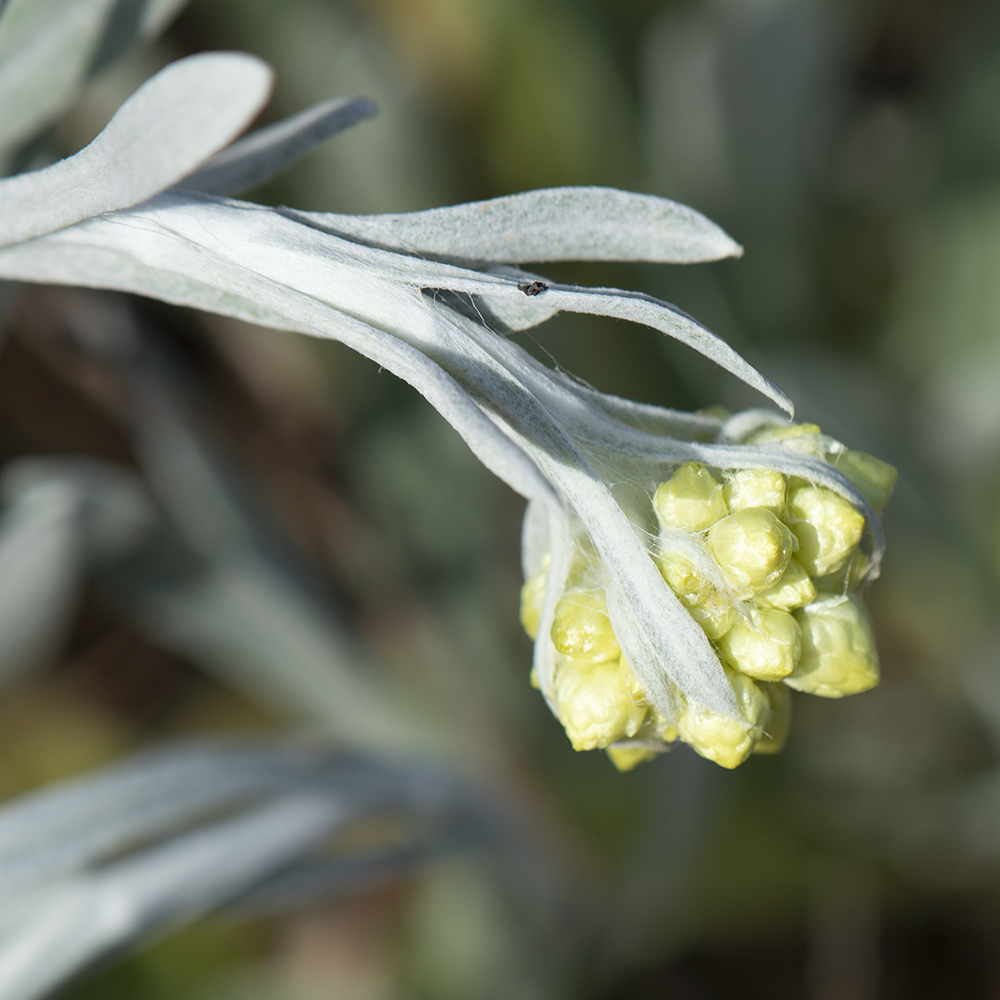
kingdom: Plantae
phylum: Tracheophyta
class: Magnoliopsida
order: Asterales
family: Asteraceae
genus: Helichrysum
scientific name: Helichrysum stoechas
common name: Goldilocks
